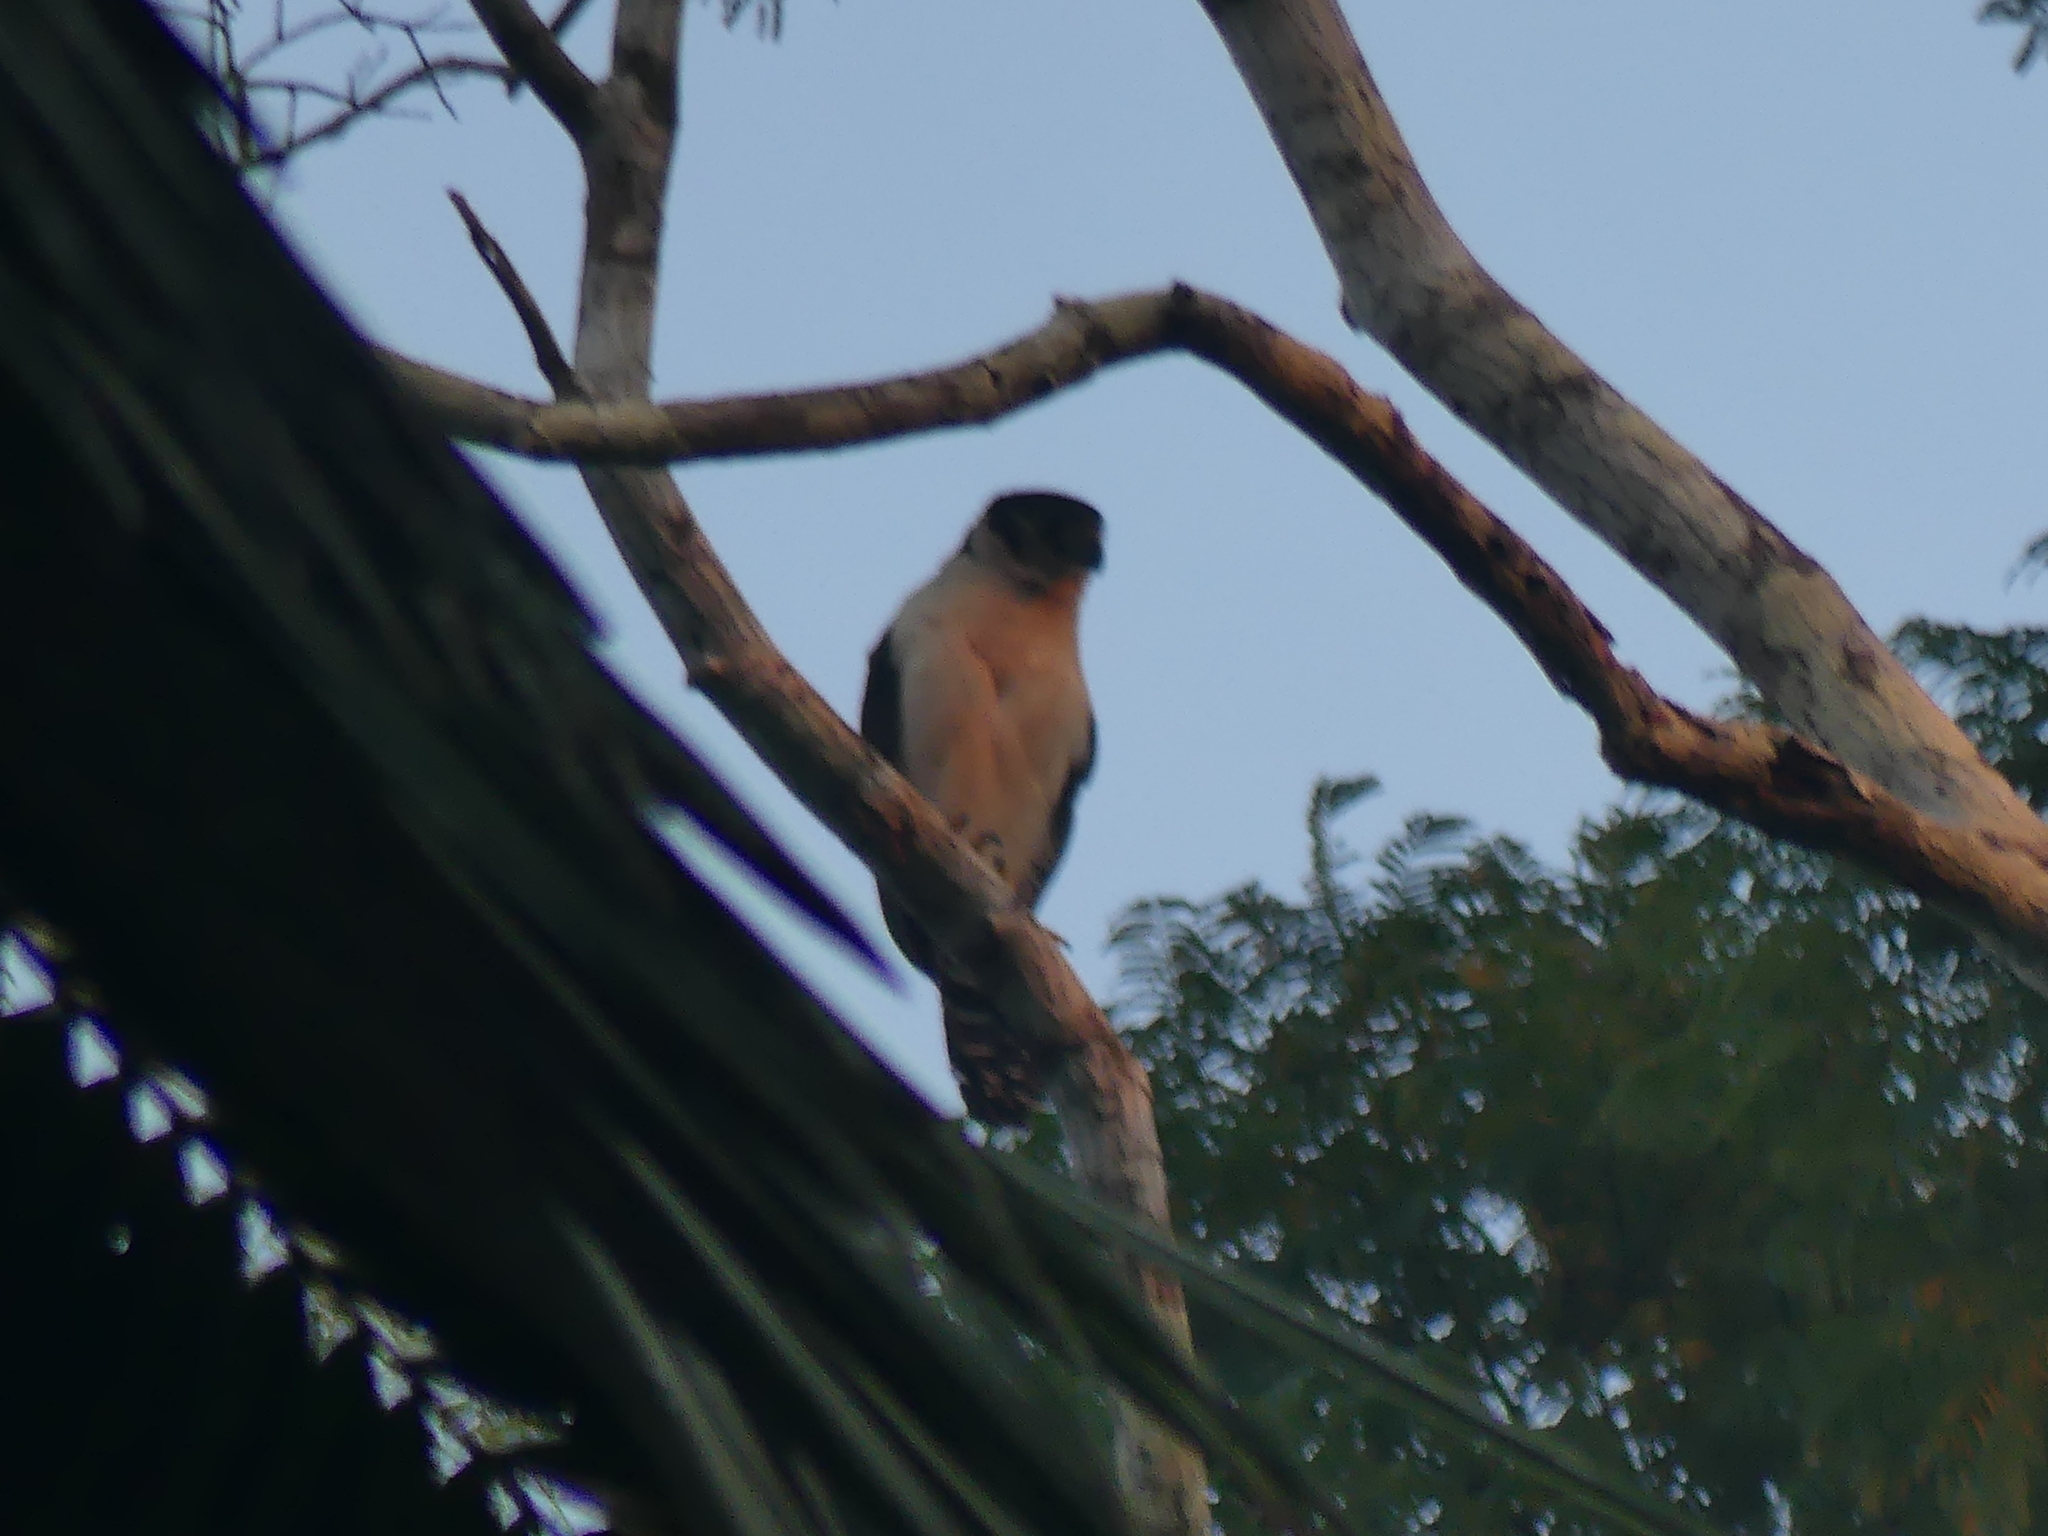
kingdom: Animalia
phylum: Chordata
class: Aves
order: Falconiformes
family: Falconidae
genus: Micrastur
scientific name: Micrastur semitorquatus
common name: Collared forest-falcon
